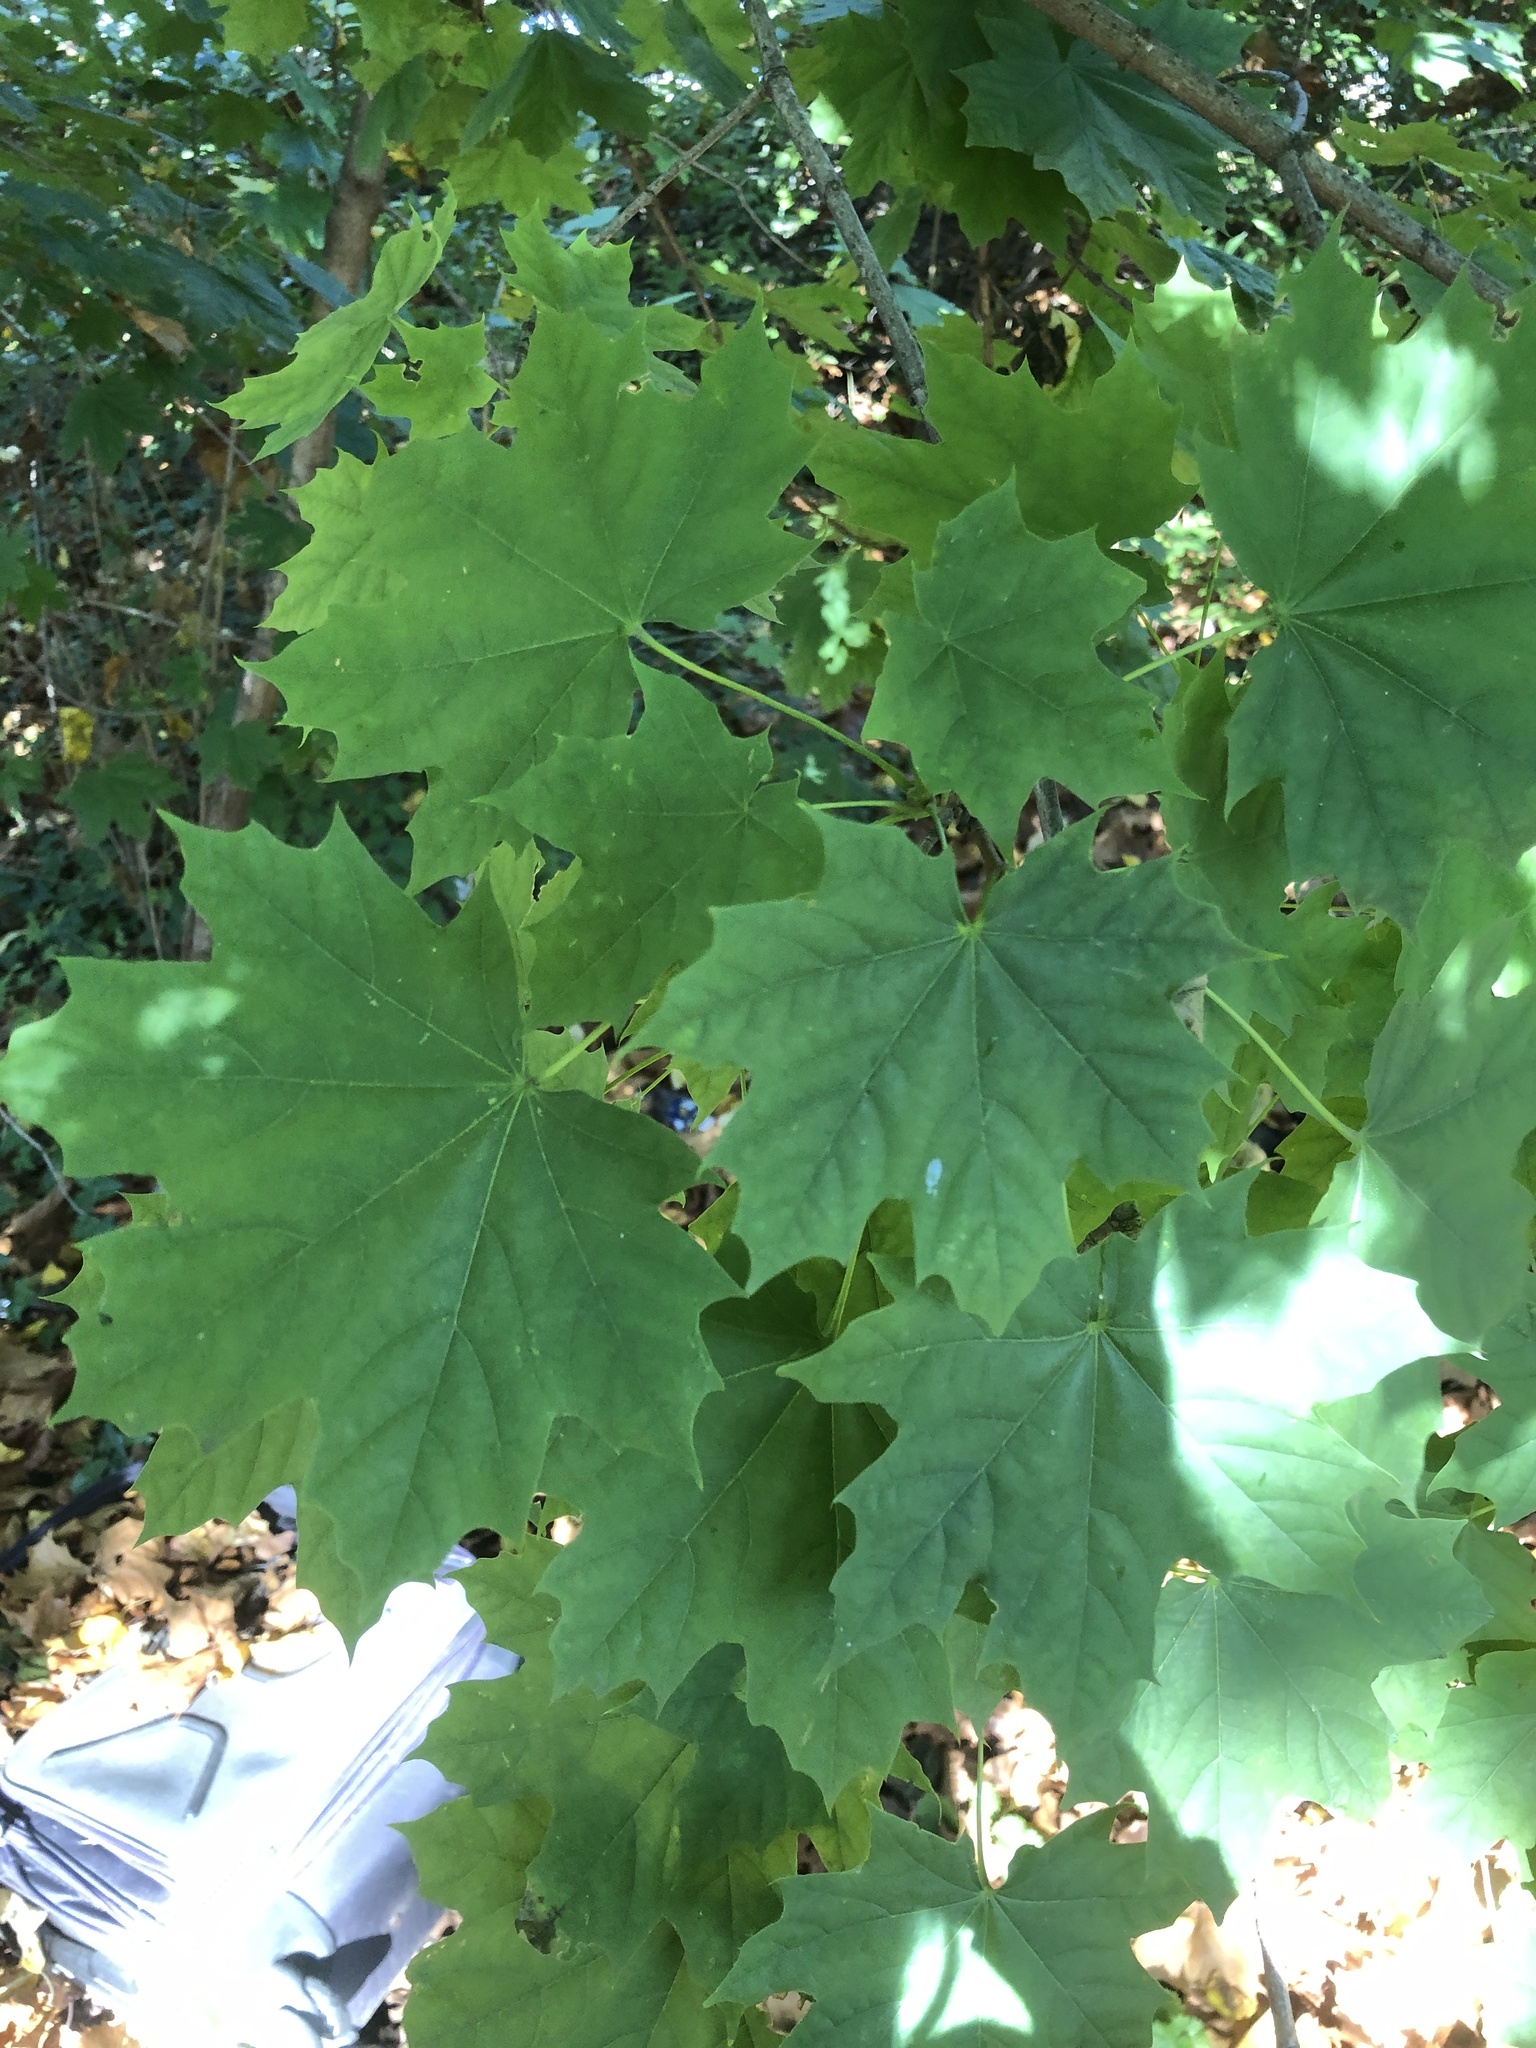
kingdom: Plantae
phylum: Tracheophyta
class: Magnoliopsida
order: Sapindales
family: Sapindaceae
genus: Acer
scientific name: Acer platanoides
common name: Norway maple
